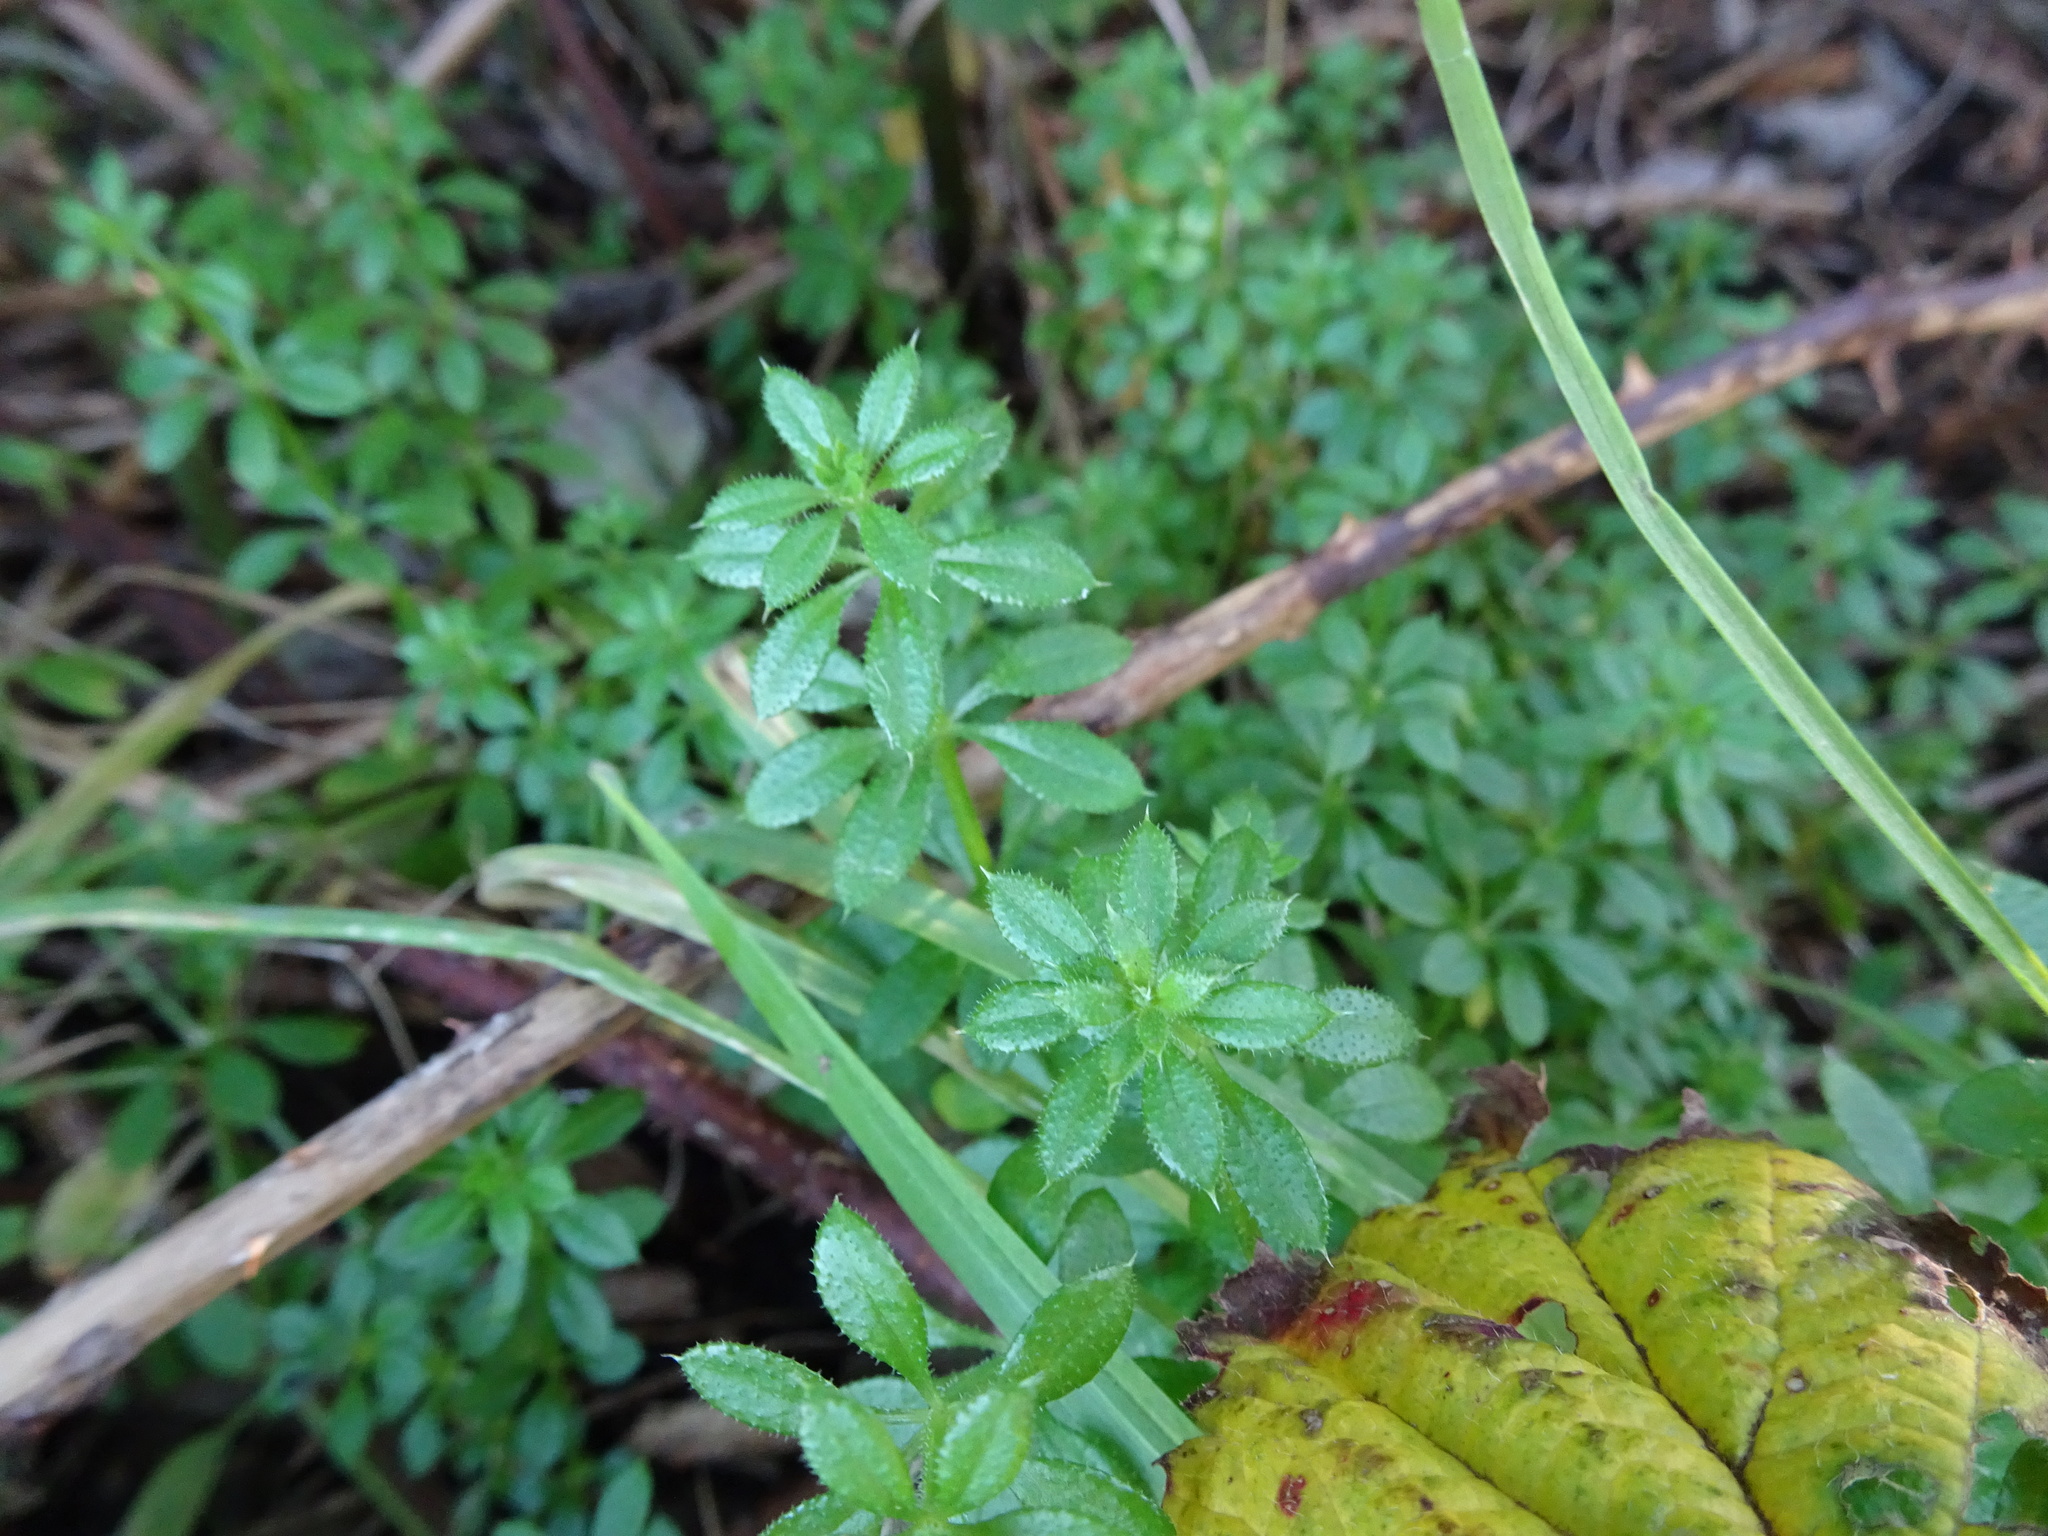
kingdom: Plantae
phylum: Tracheophyta
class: Magnoliopsida
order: Gentianales
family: Rubiaceae
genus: Galium
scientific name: Galium aparine
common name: Cleavers
